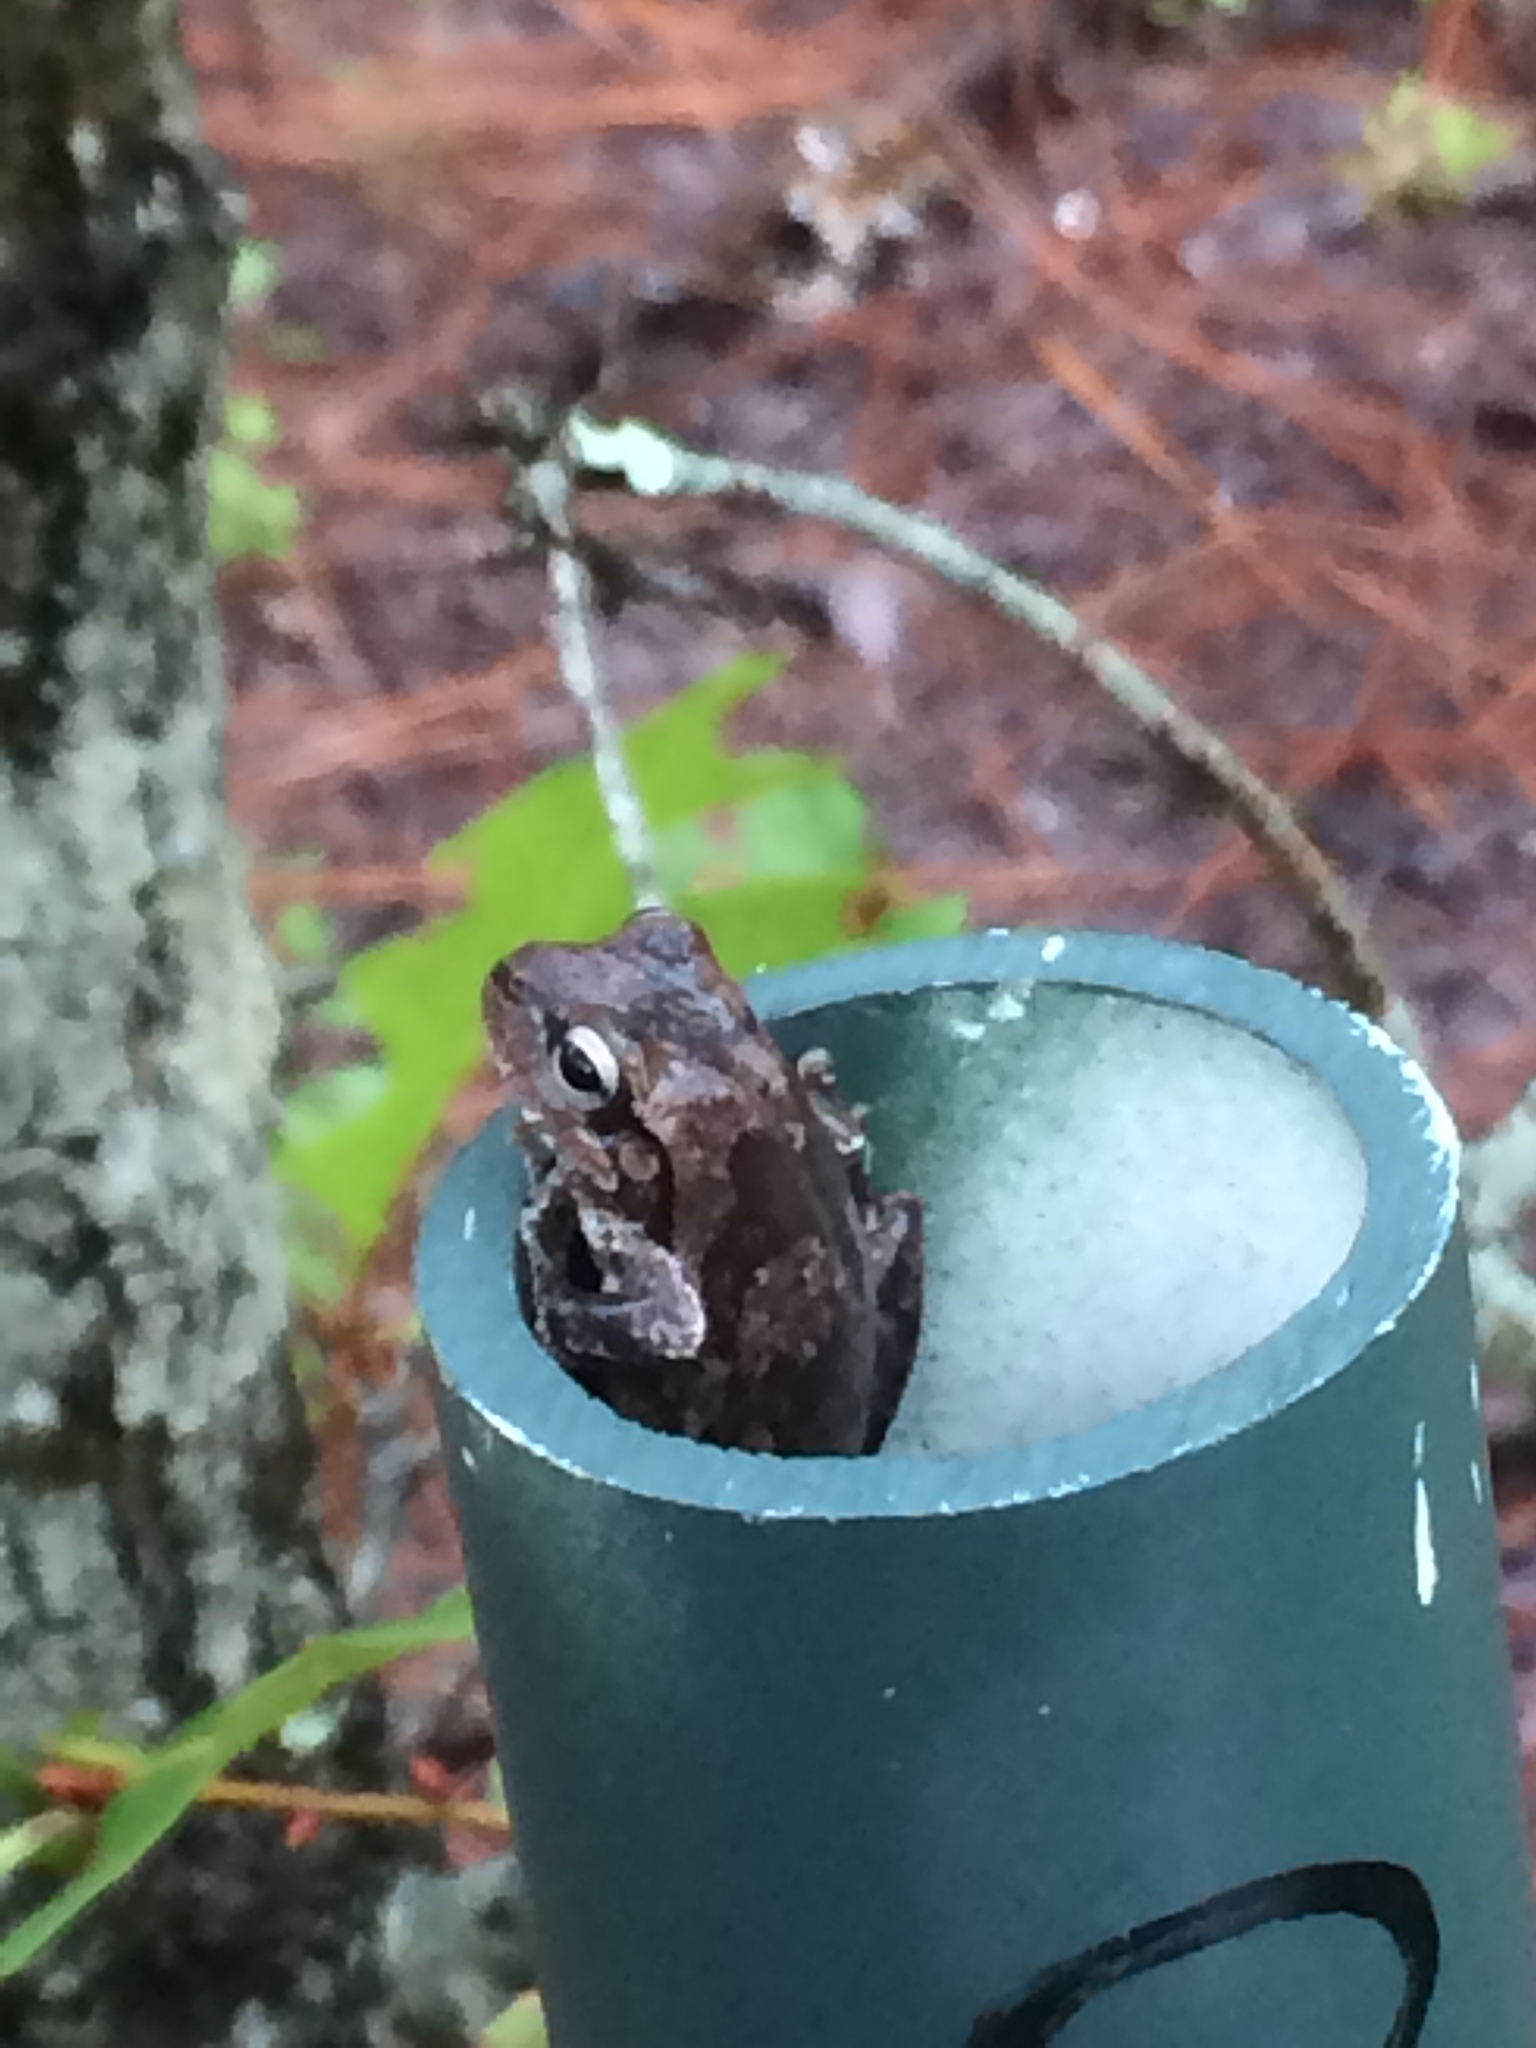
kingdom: Animalia
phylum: Chordata
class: Amphibia
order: Anura
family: Hylidae
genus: Hyla
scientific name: Hyla femoralis
